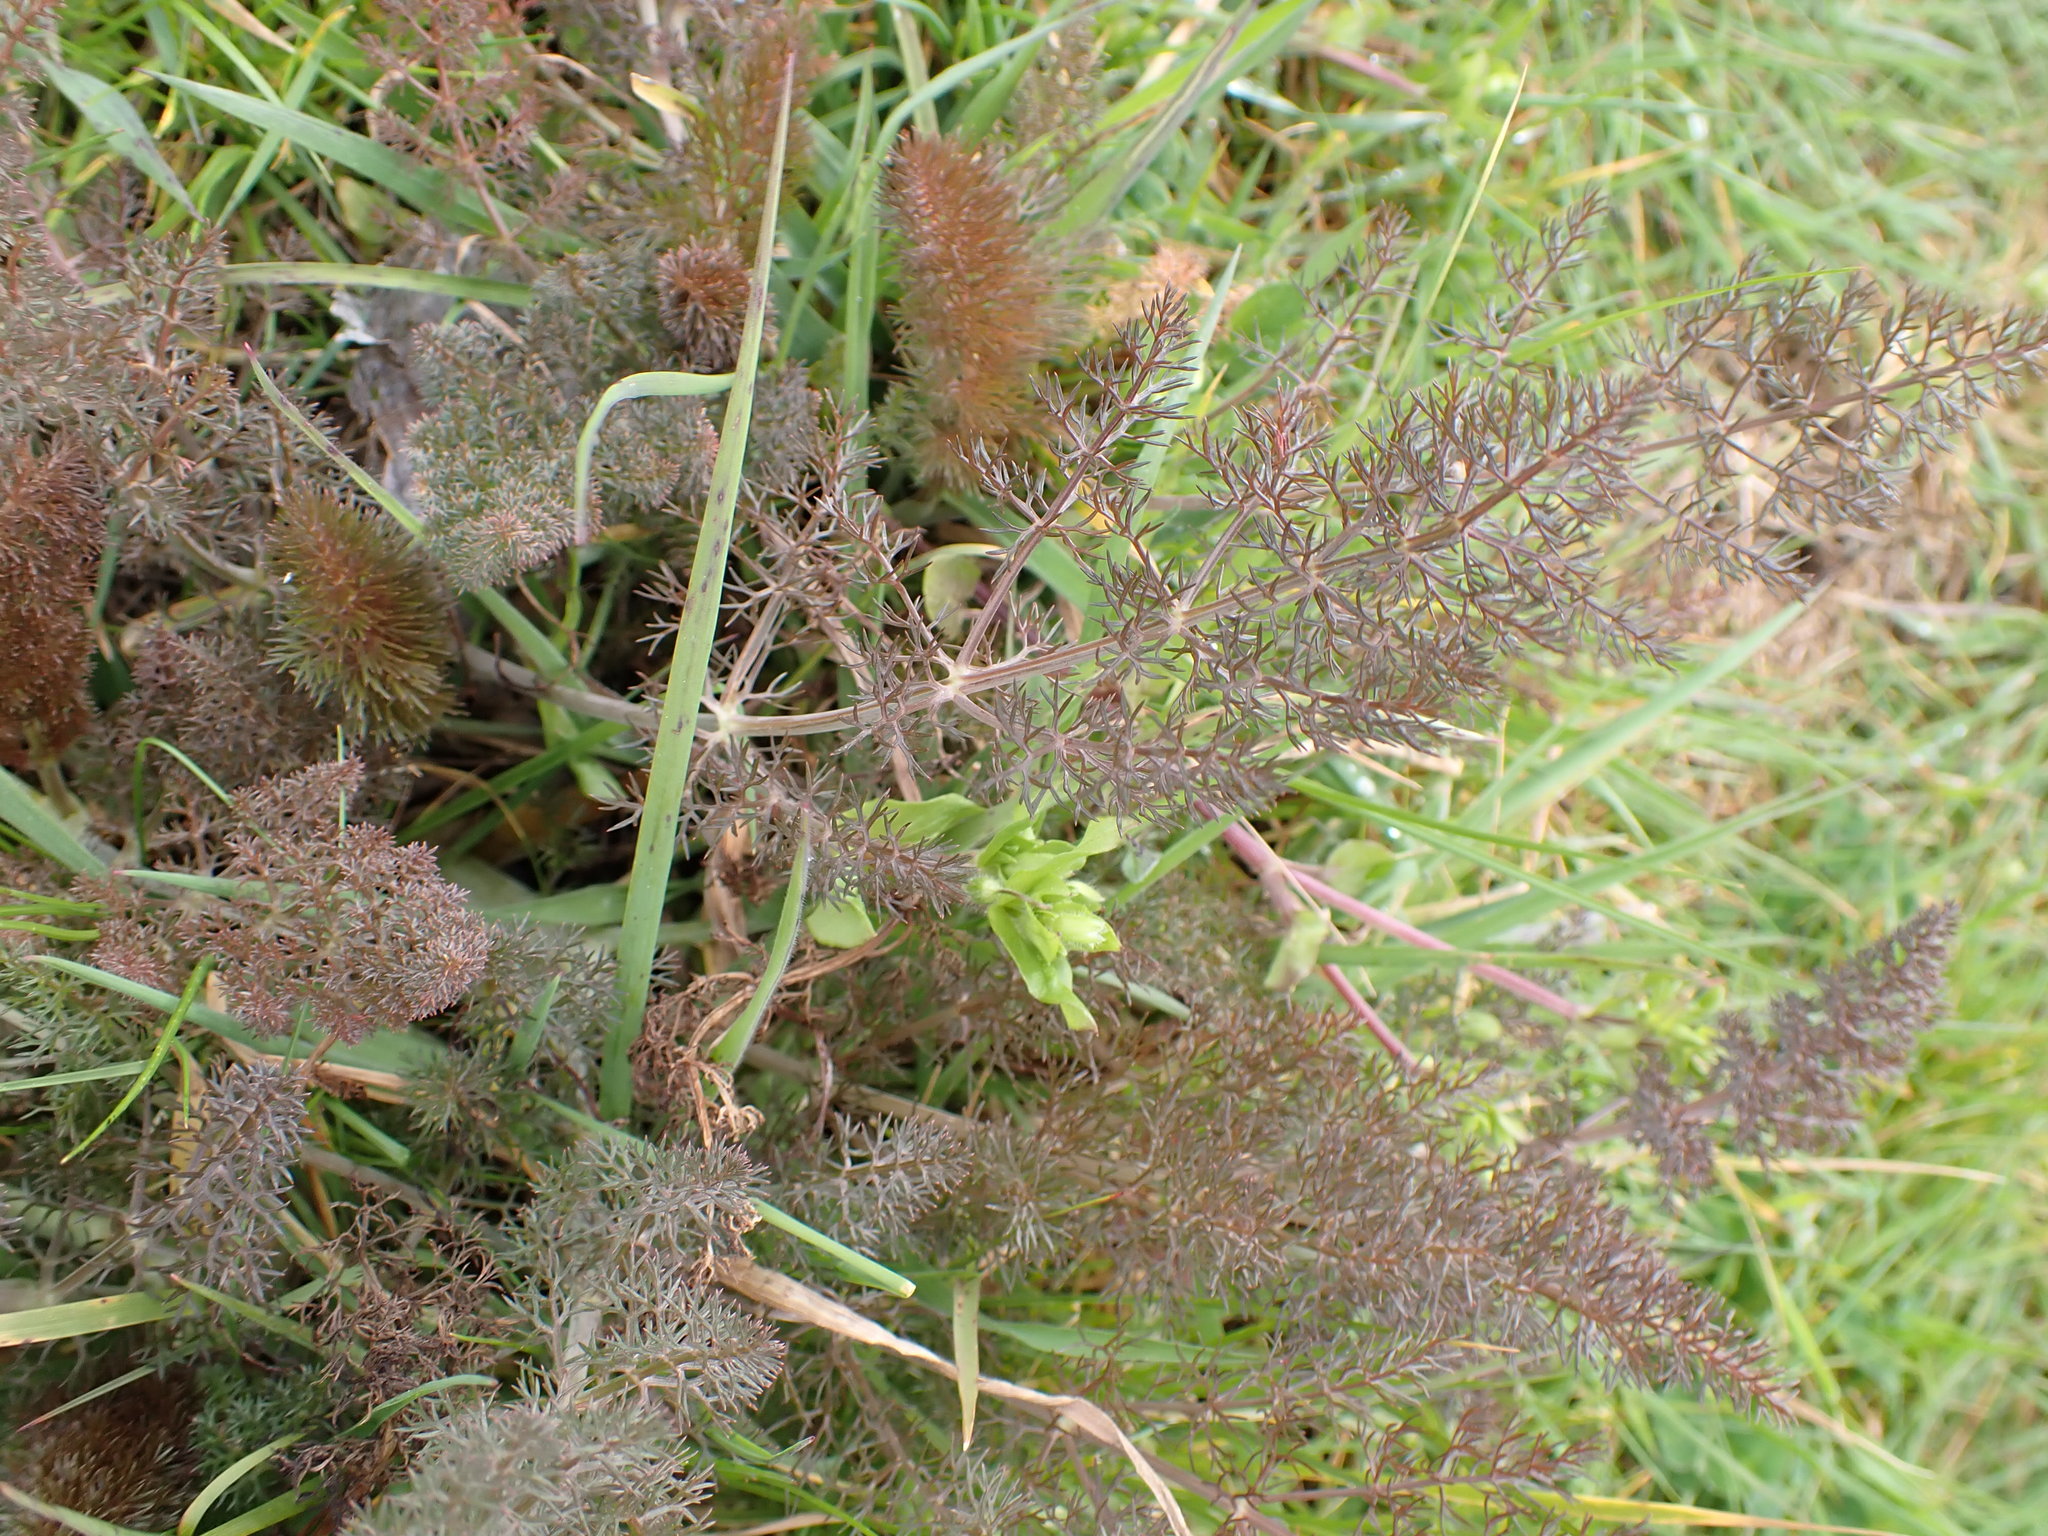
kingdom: Plantae
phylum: Tracheophyta
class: Magnoliopsida
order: Apiales
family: Apiaceae
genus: Foeniculum
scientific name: Foeniculum vulgare
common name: Fennel
